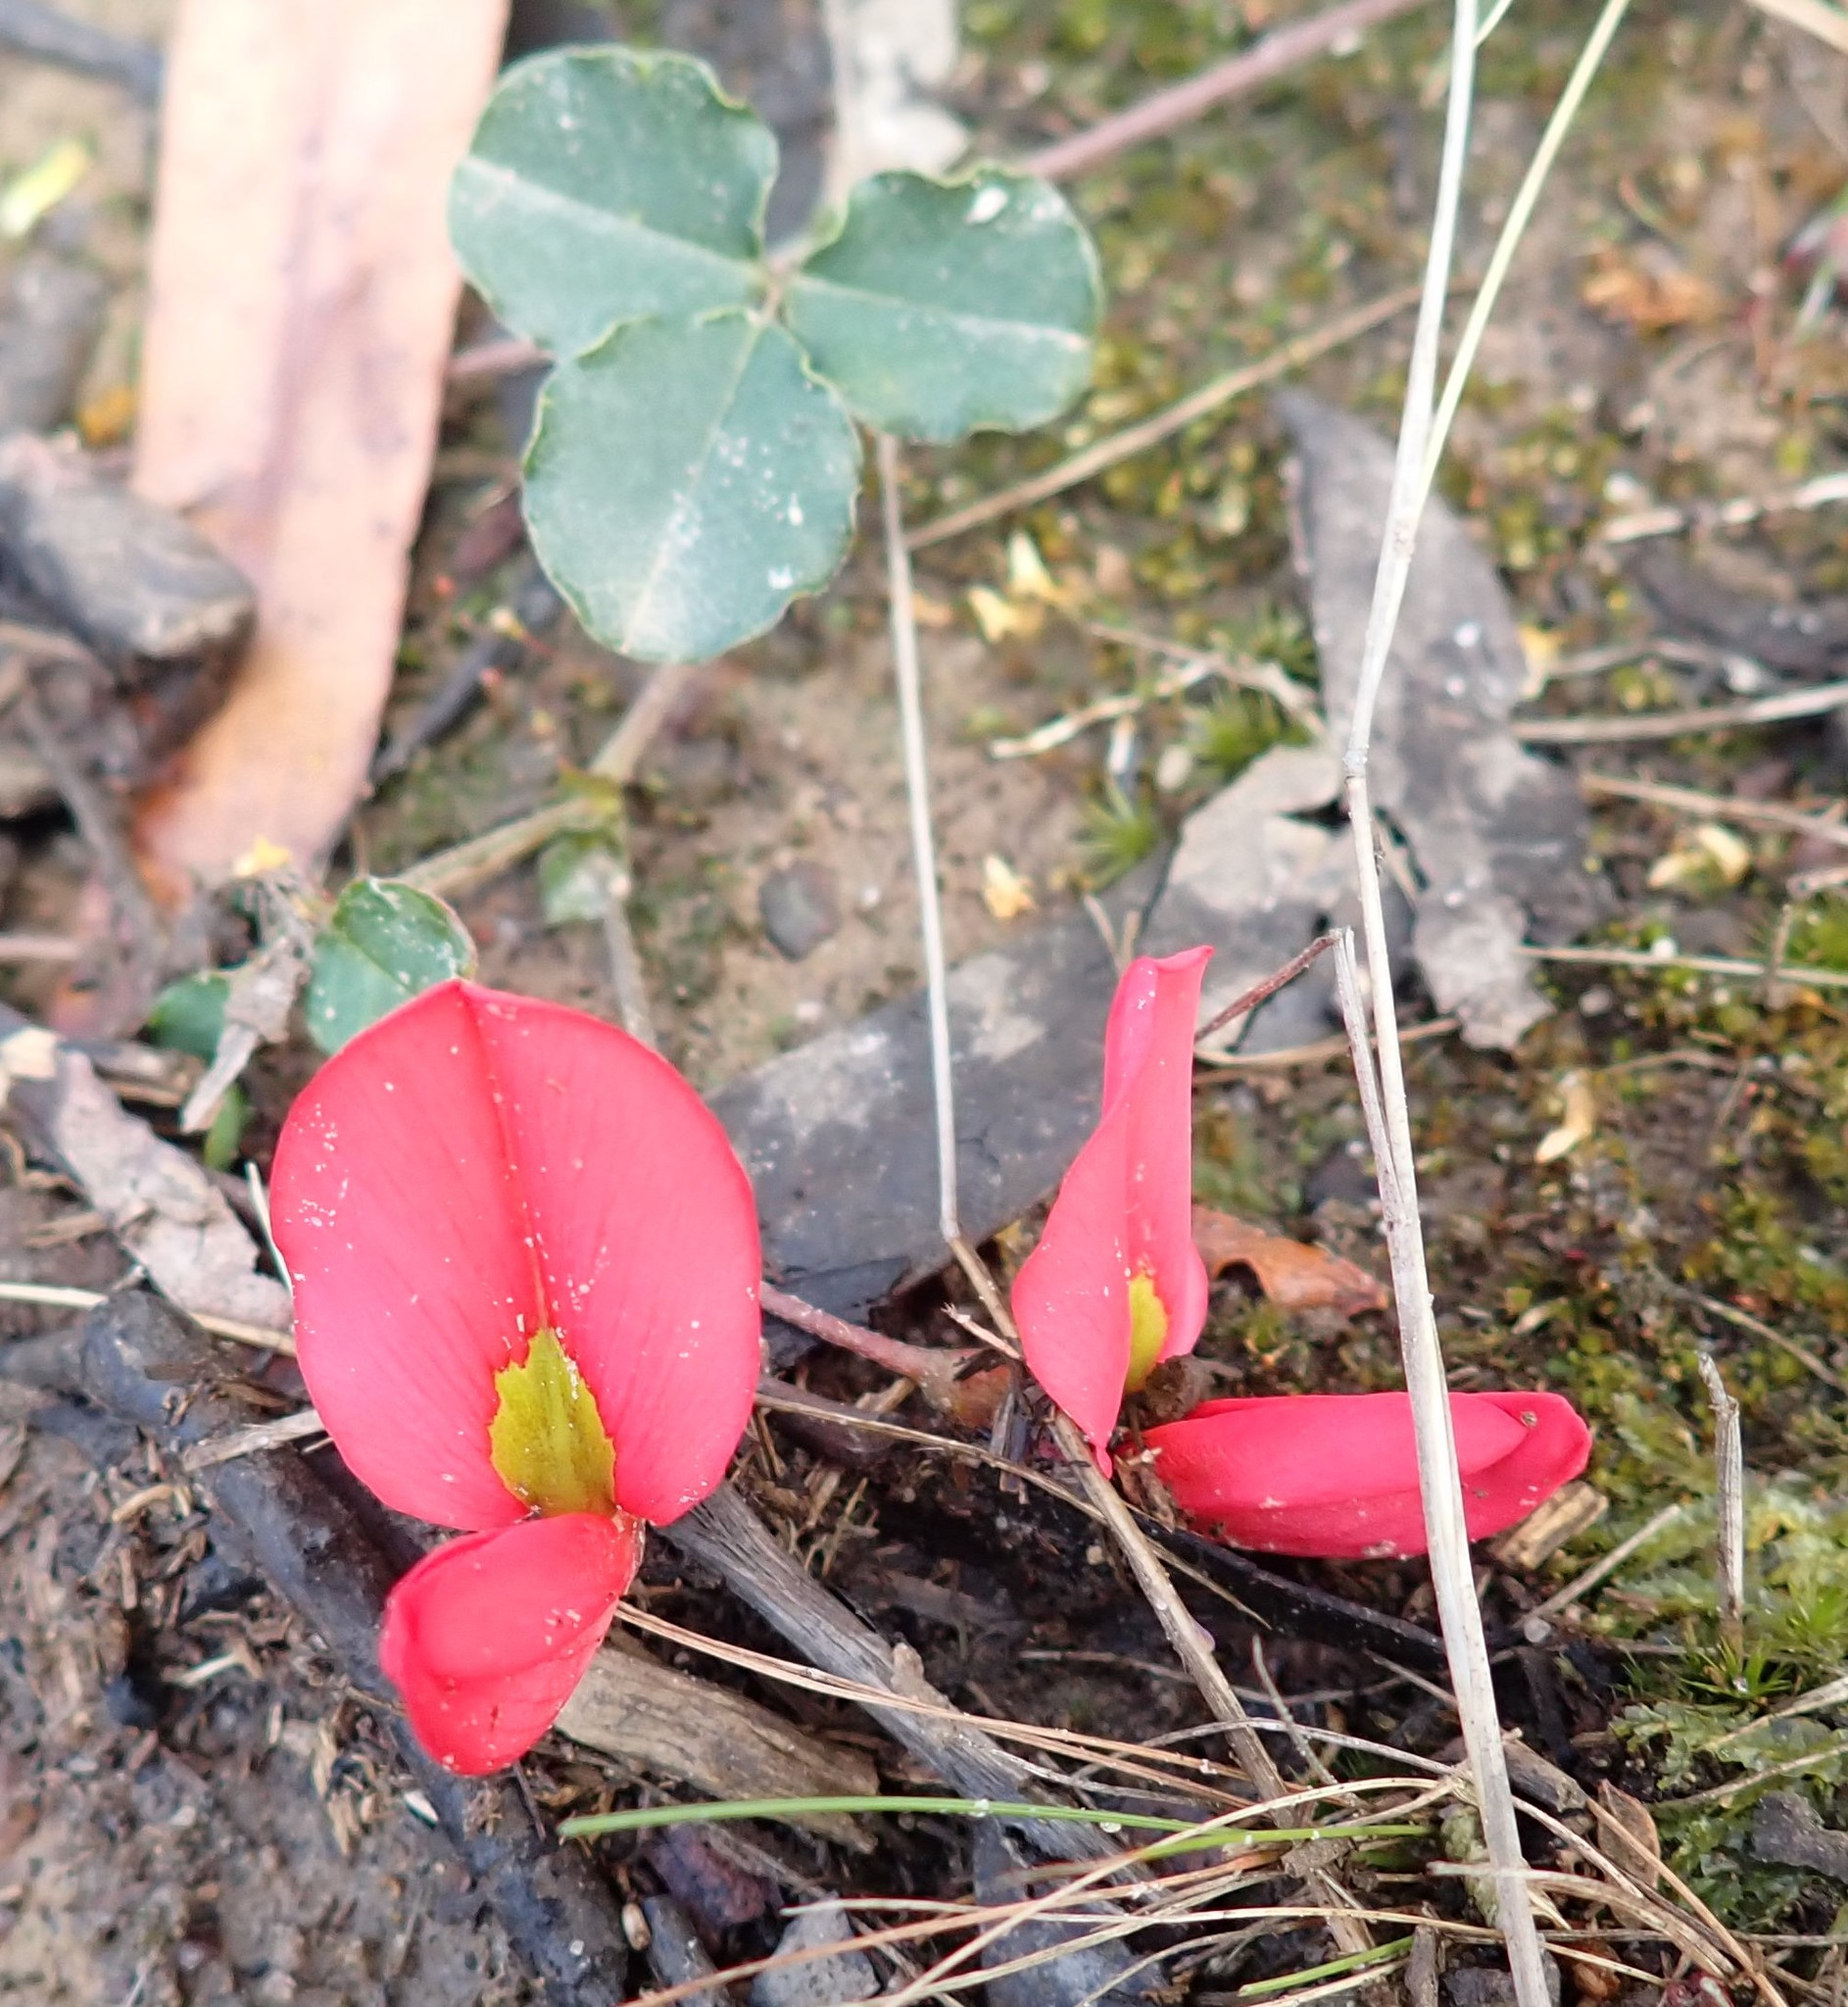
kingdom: Plantae
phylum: Tracheophyta
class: Magnoliopsida
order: Fabales
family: Fabaceae
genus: Kennedia
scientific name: Kennedia prostrata
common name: Running-postman
